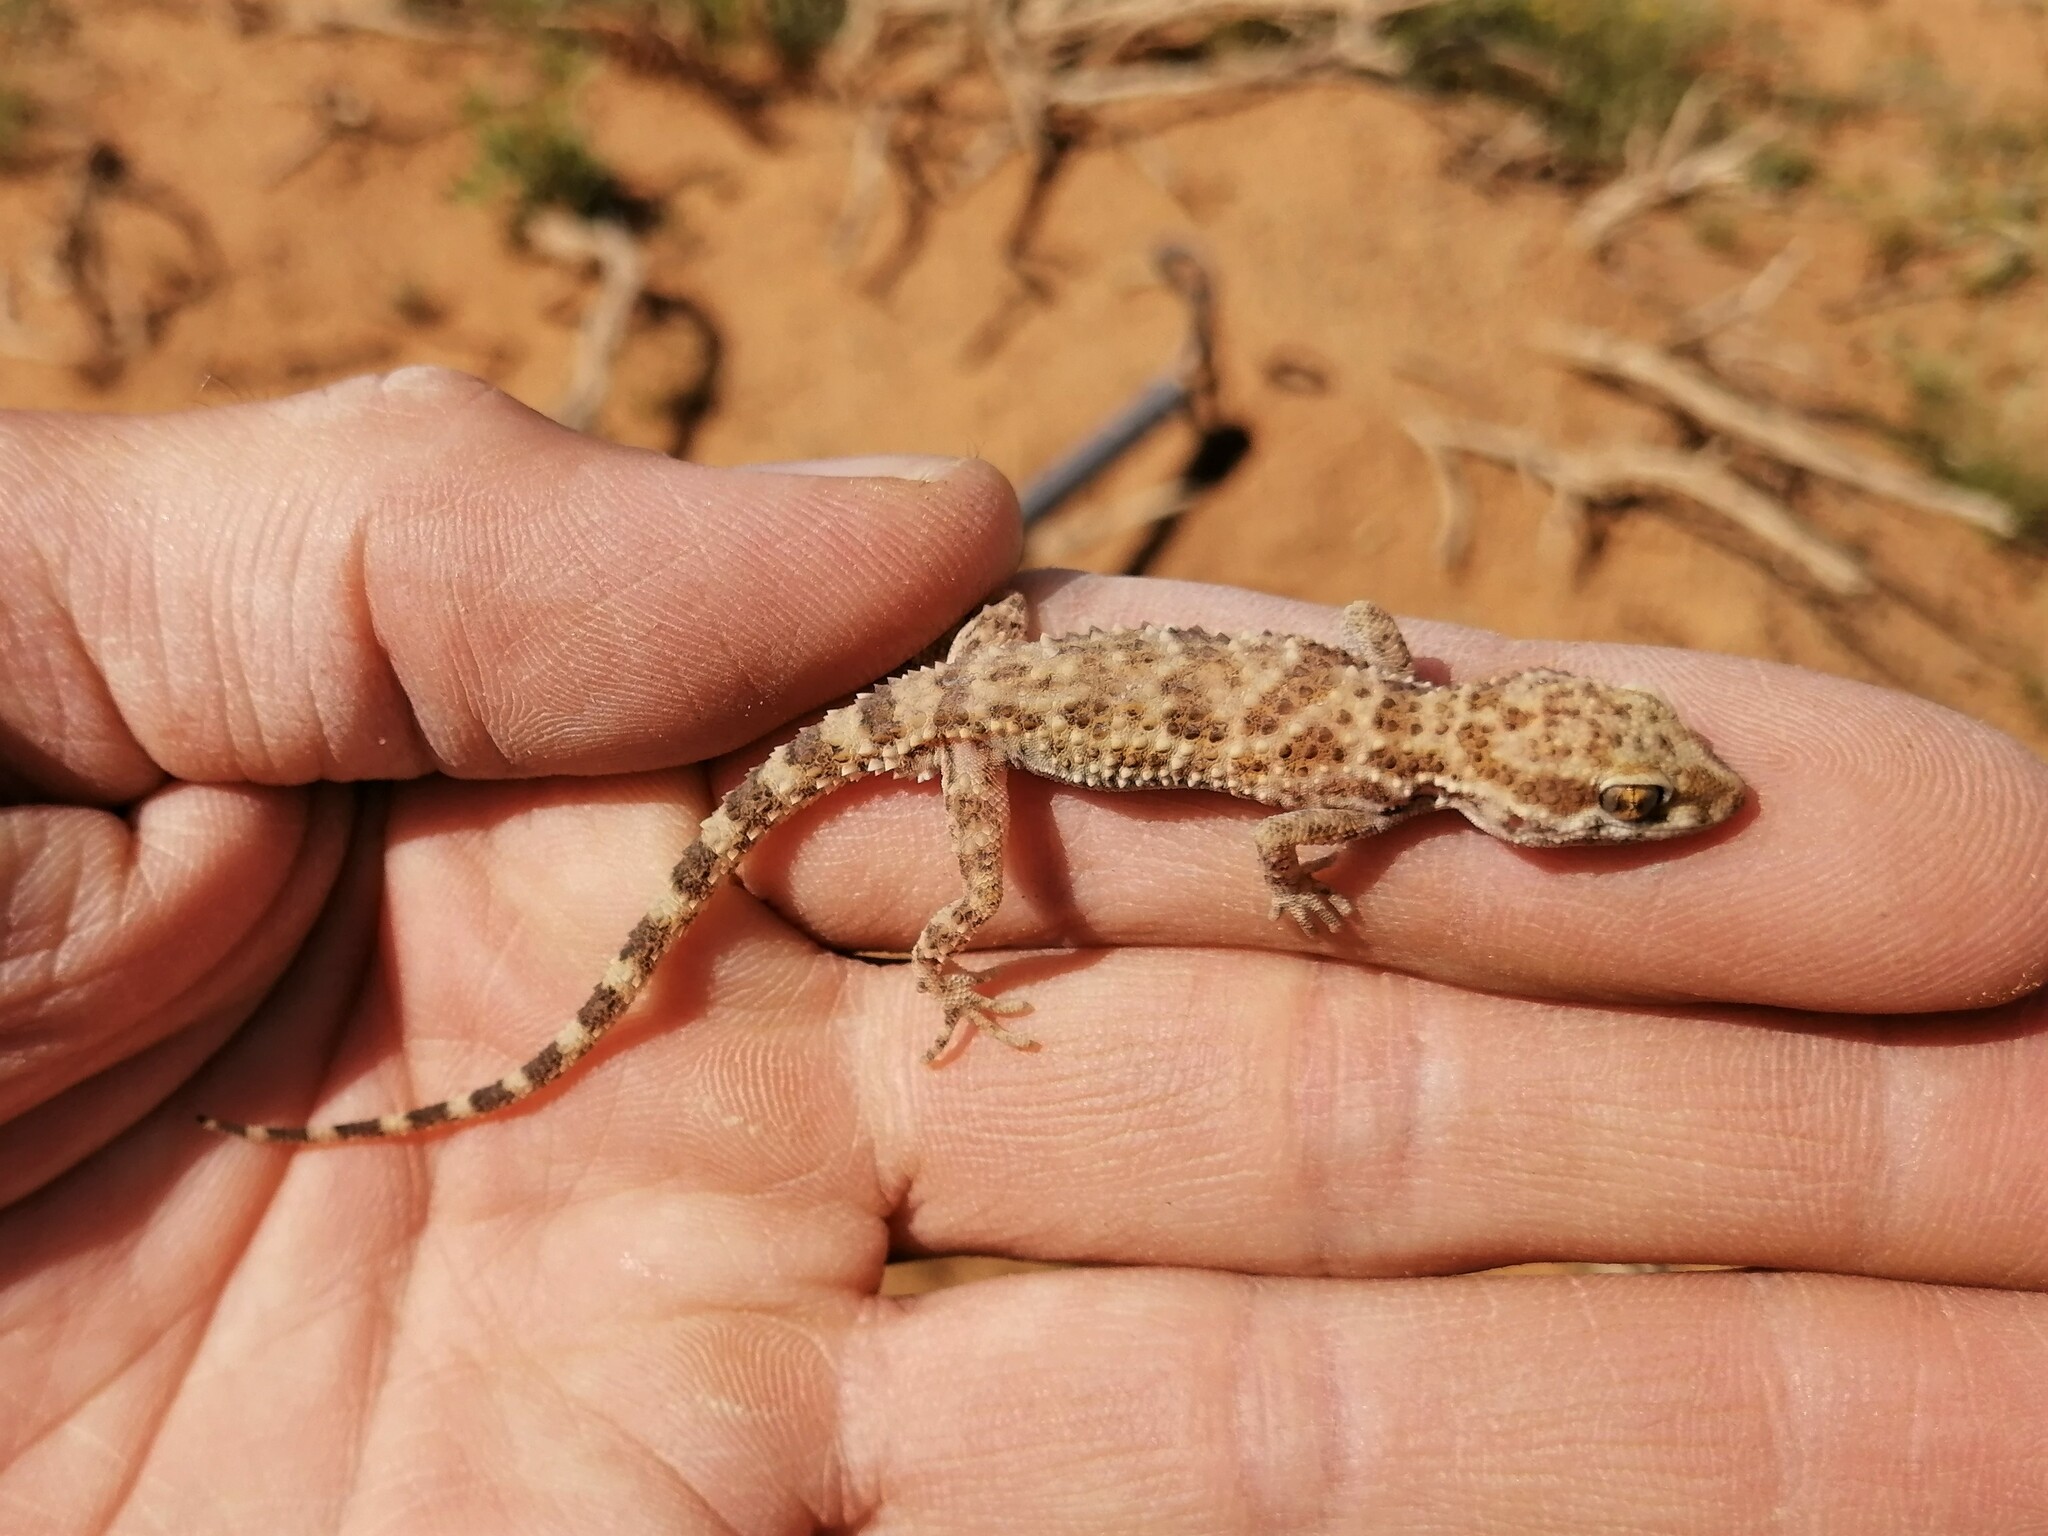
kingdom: Animalia
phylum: Chordata
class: Squamata
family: Gekkonidae
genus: Bunopus
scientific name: Bunopus tuberculatus
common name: Southern tuberculated gecko
